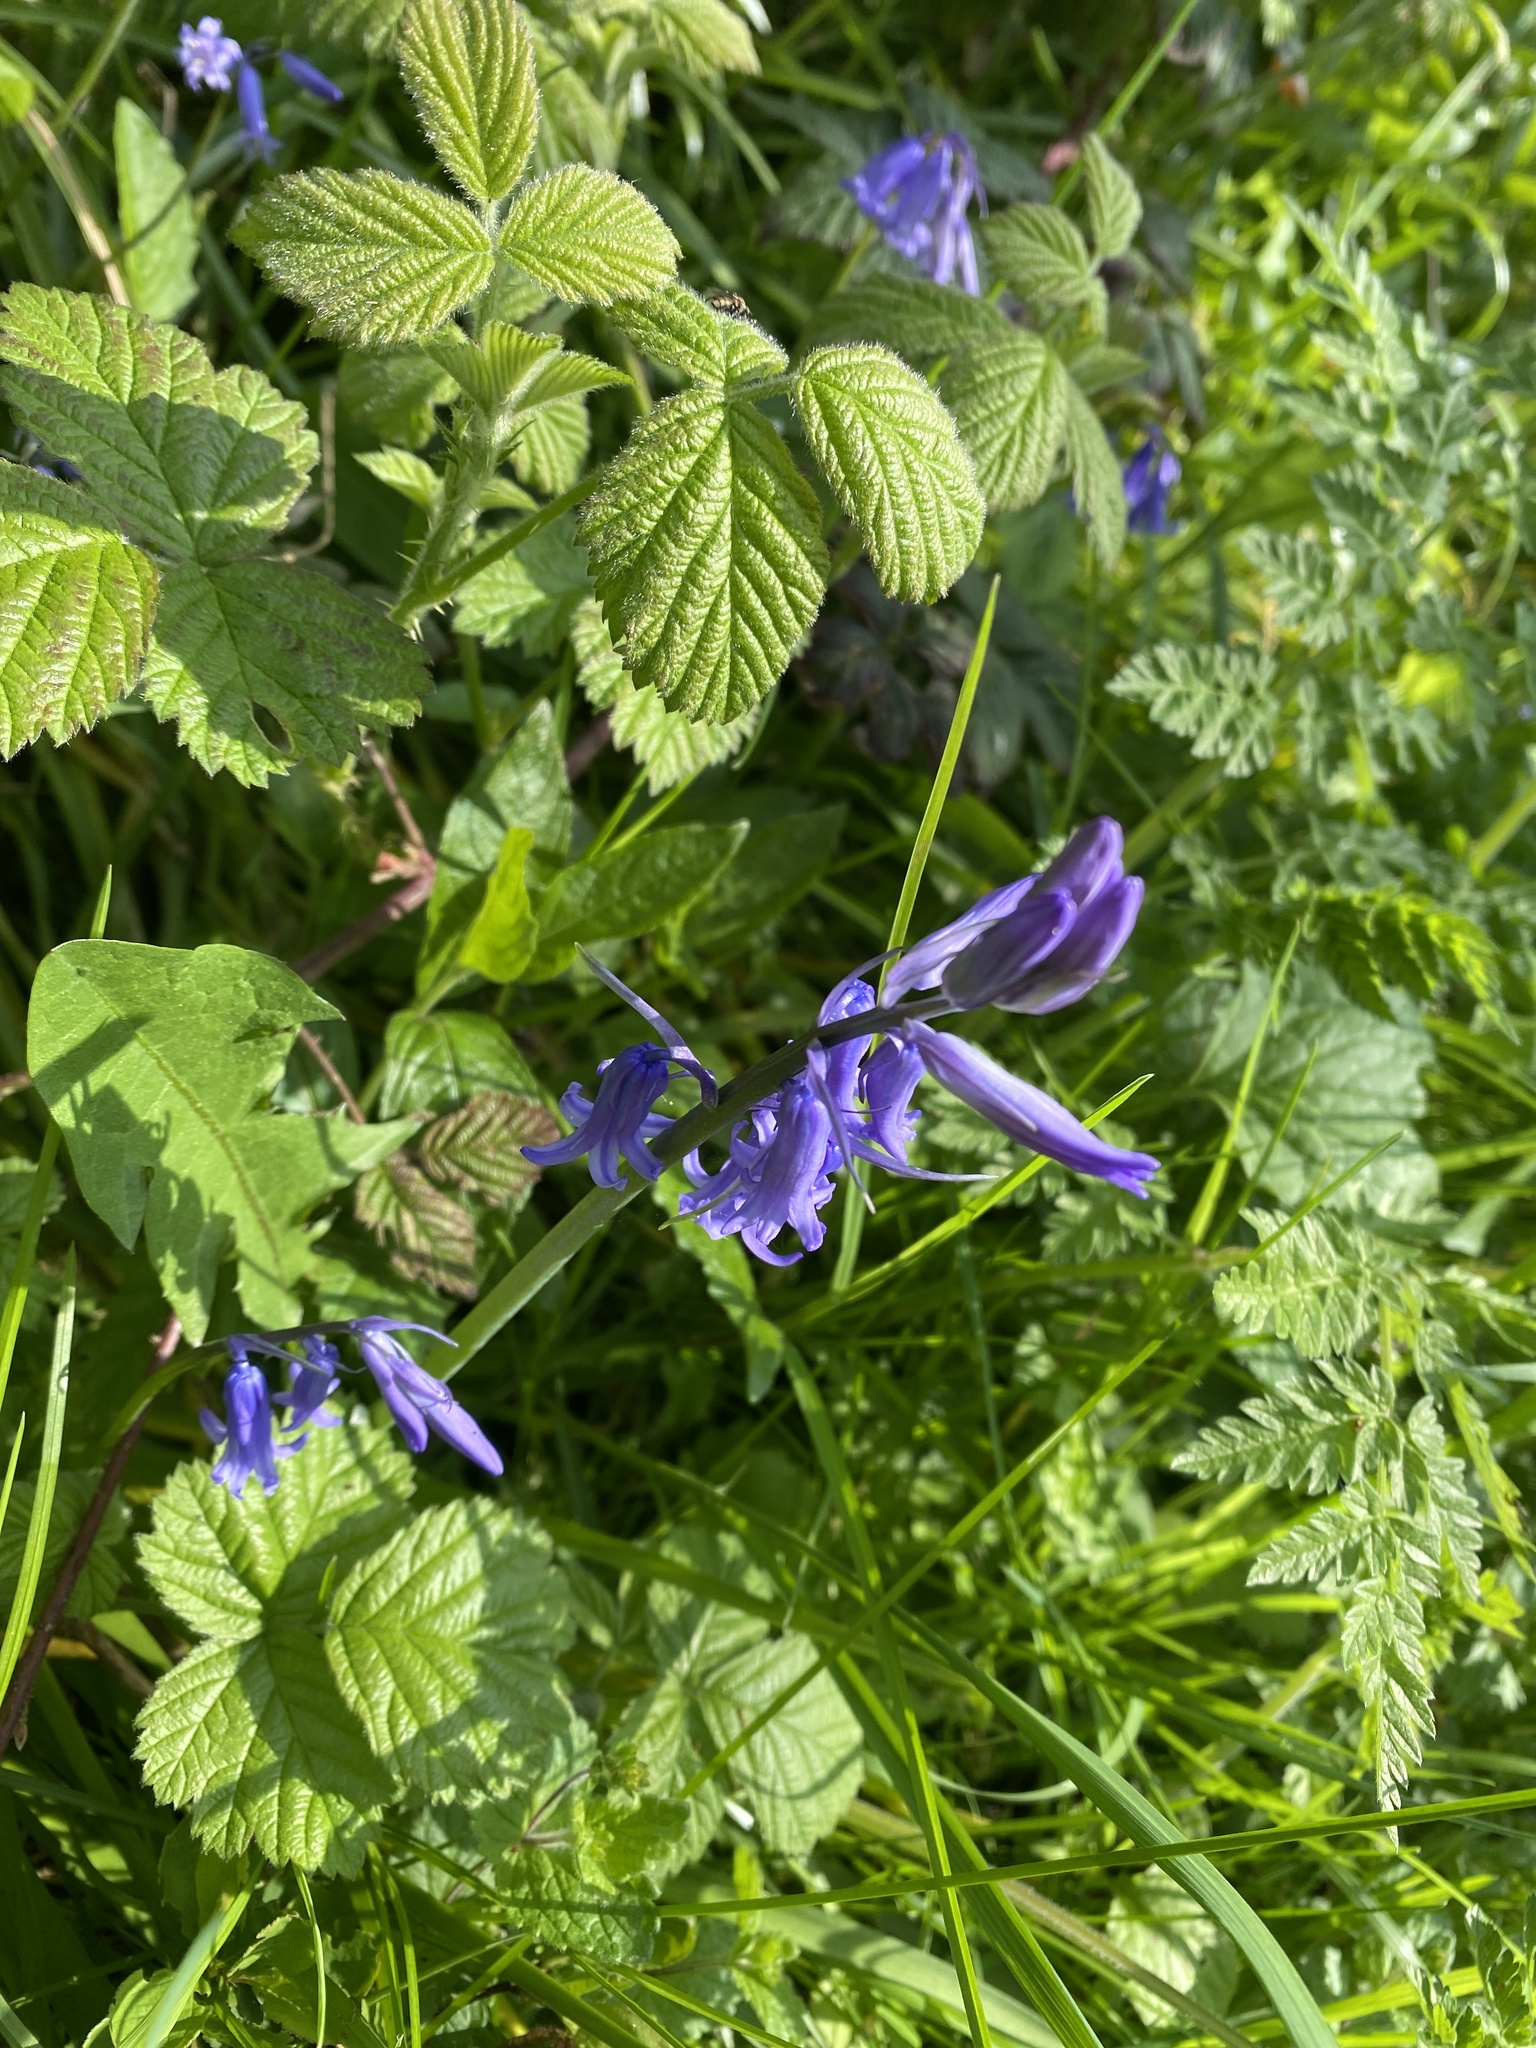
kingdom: Plantae
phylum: Tracheophyta
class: Liliopsida
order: Asparagales
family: Asparagaceae
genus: Hyacinthoides
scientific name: Hyacinthoides non-scripta
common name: Bluebell
